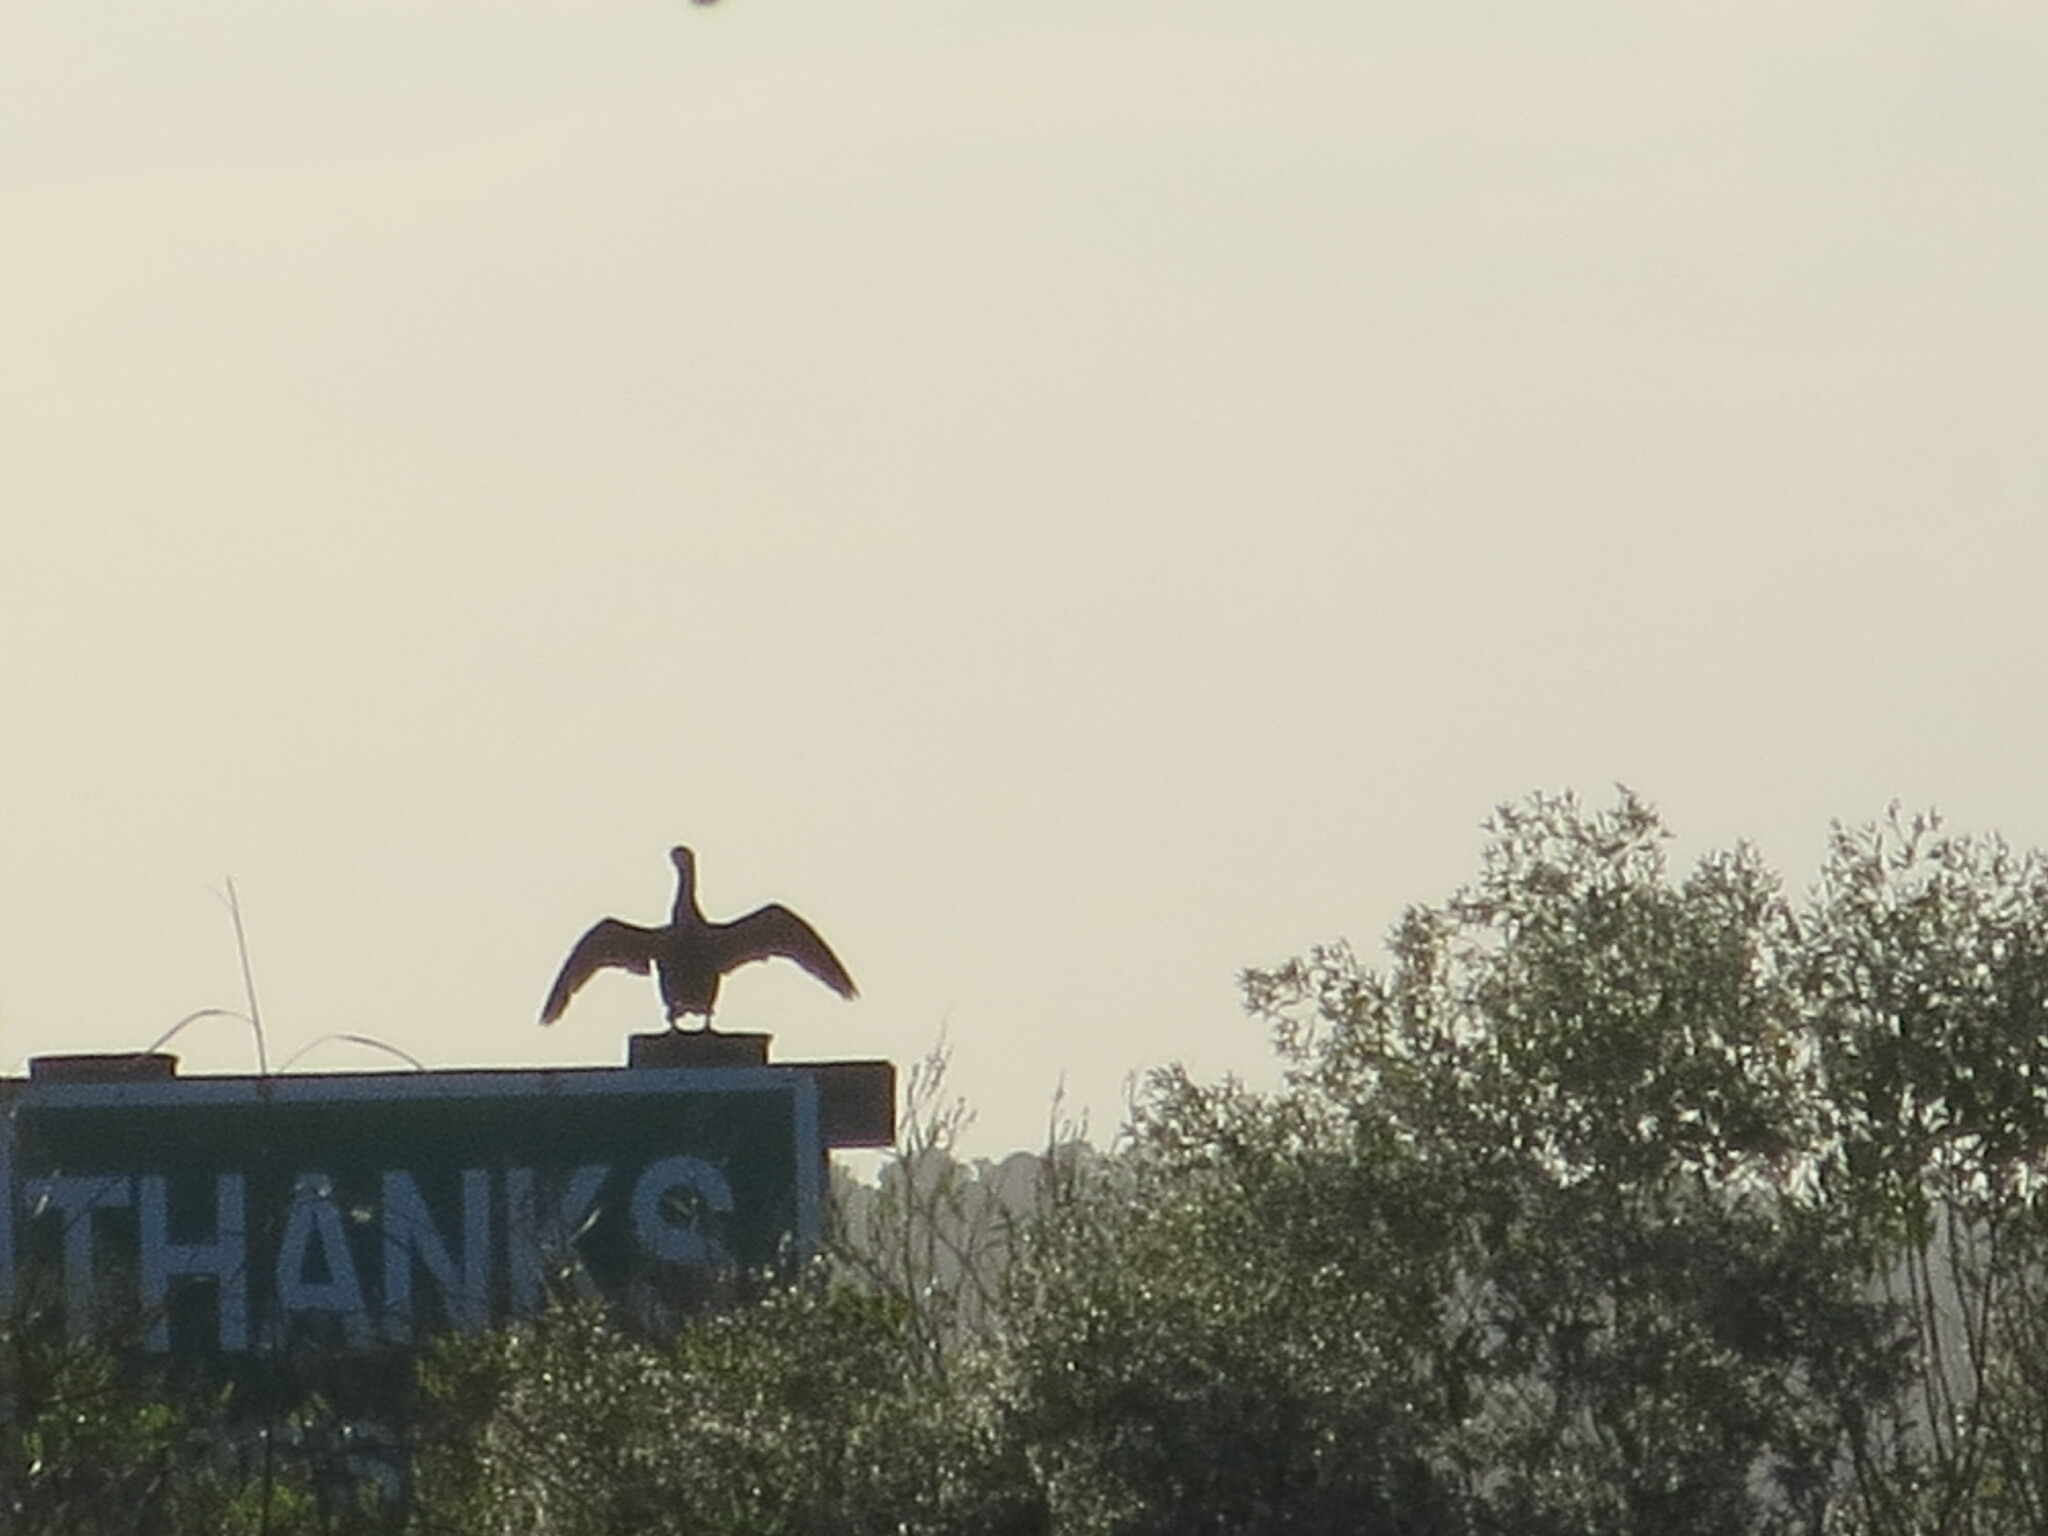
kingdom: Animalia
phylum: Chordata
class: Aves
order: Suliformes
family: Phalacrocoracidae
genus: Phalacrocorax
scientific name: Phalacrocorax auritus
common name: Double-crested cormorant
